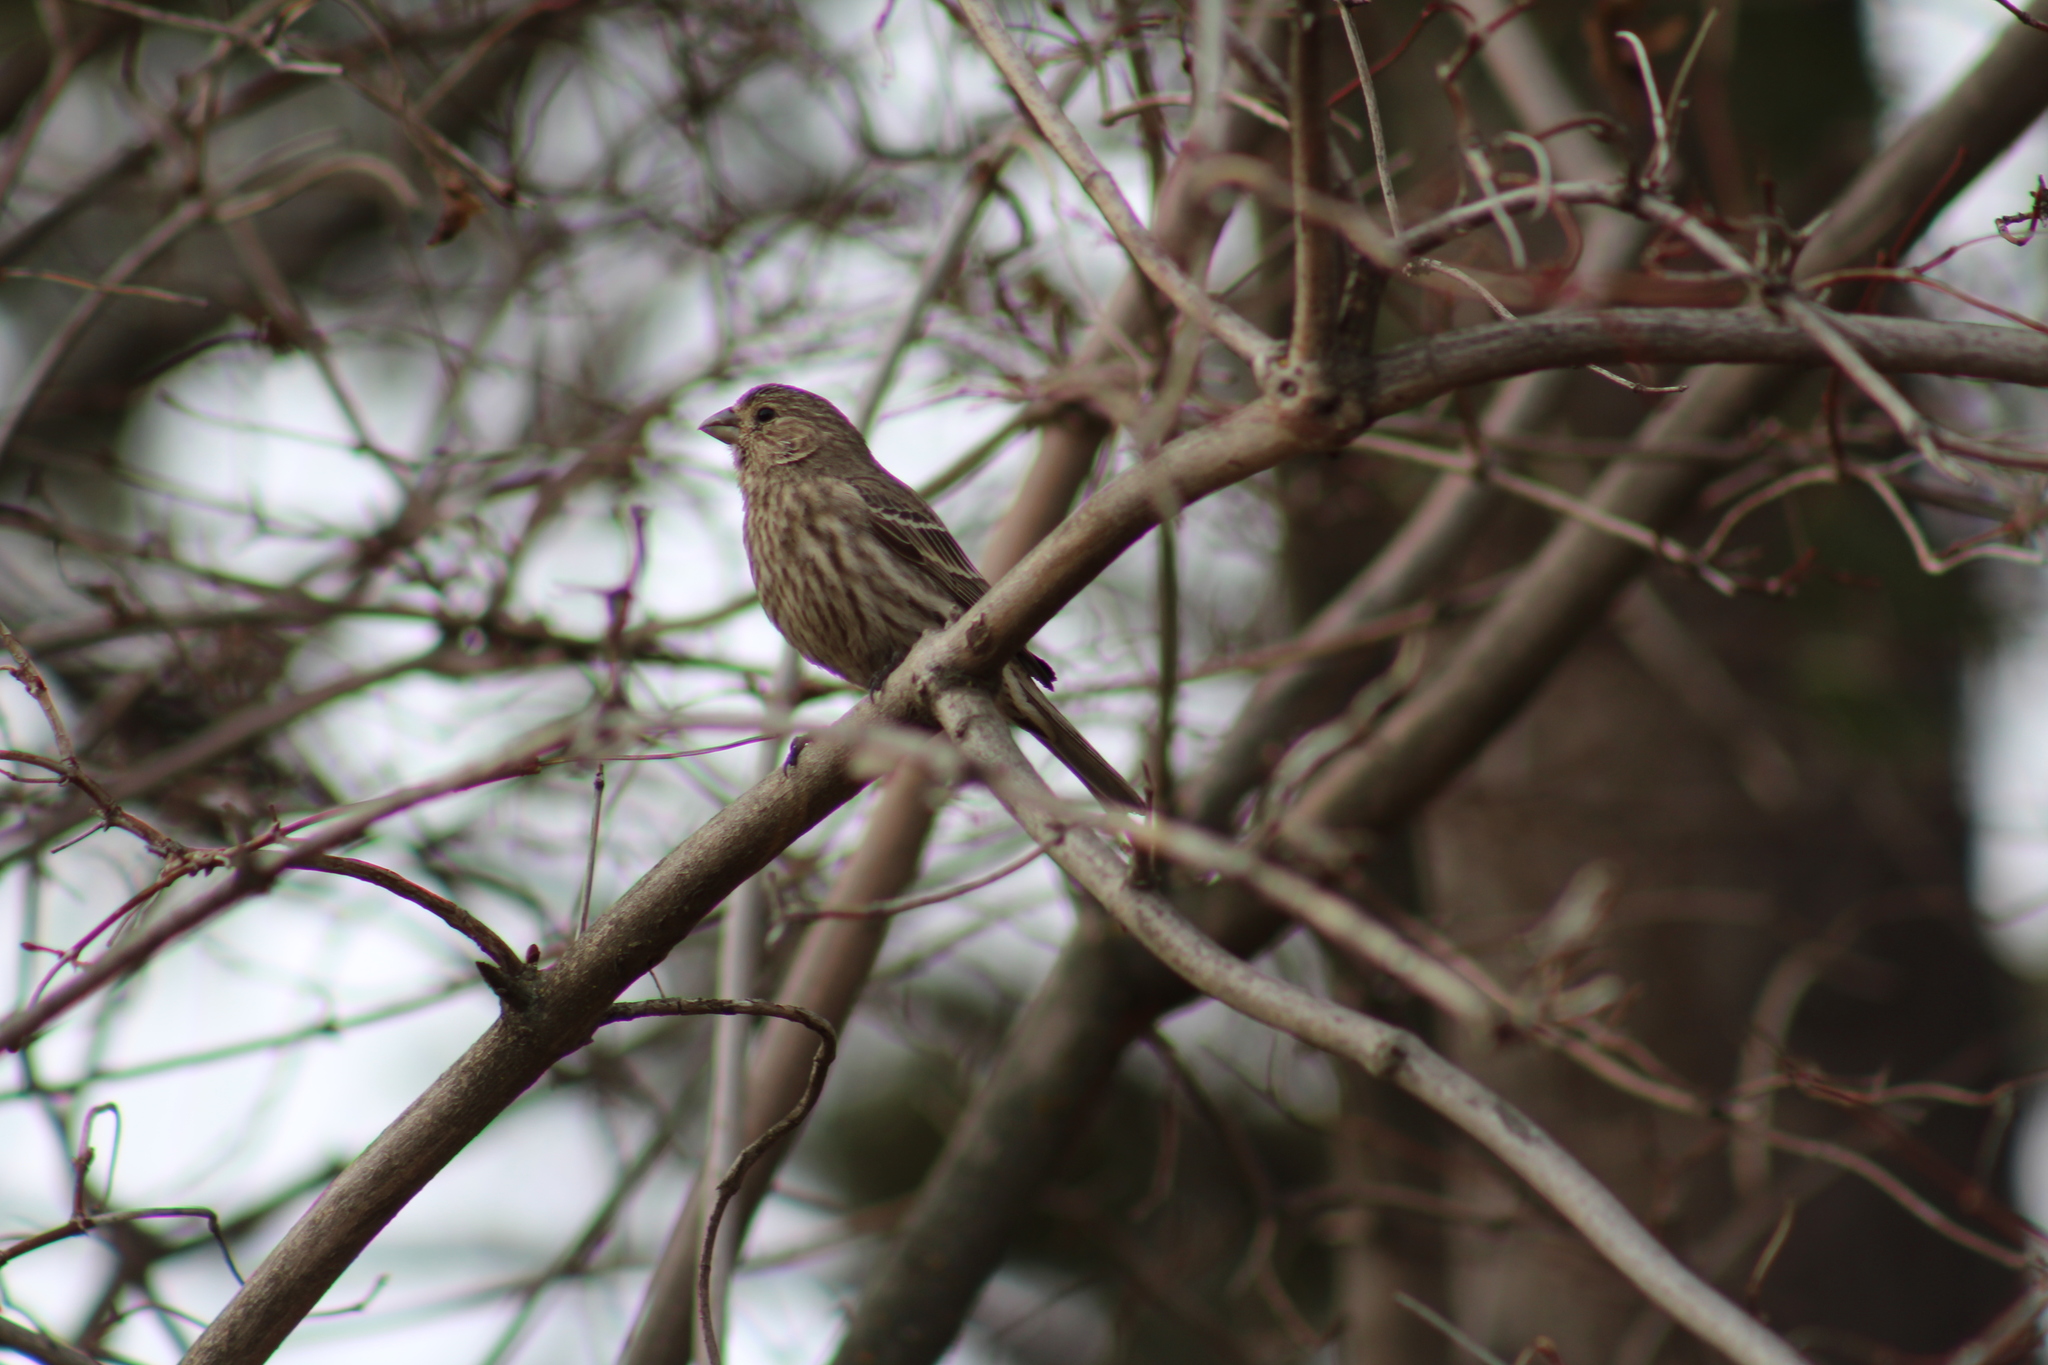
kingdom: Animalia
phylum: Chordata
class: Aves
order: Passeriformes
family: Fringillidae
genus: Haemorhous
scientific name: Haemorhous mexicanus
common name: House finch
